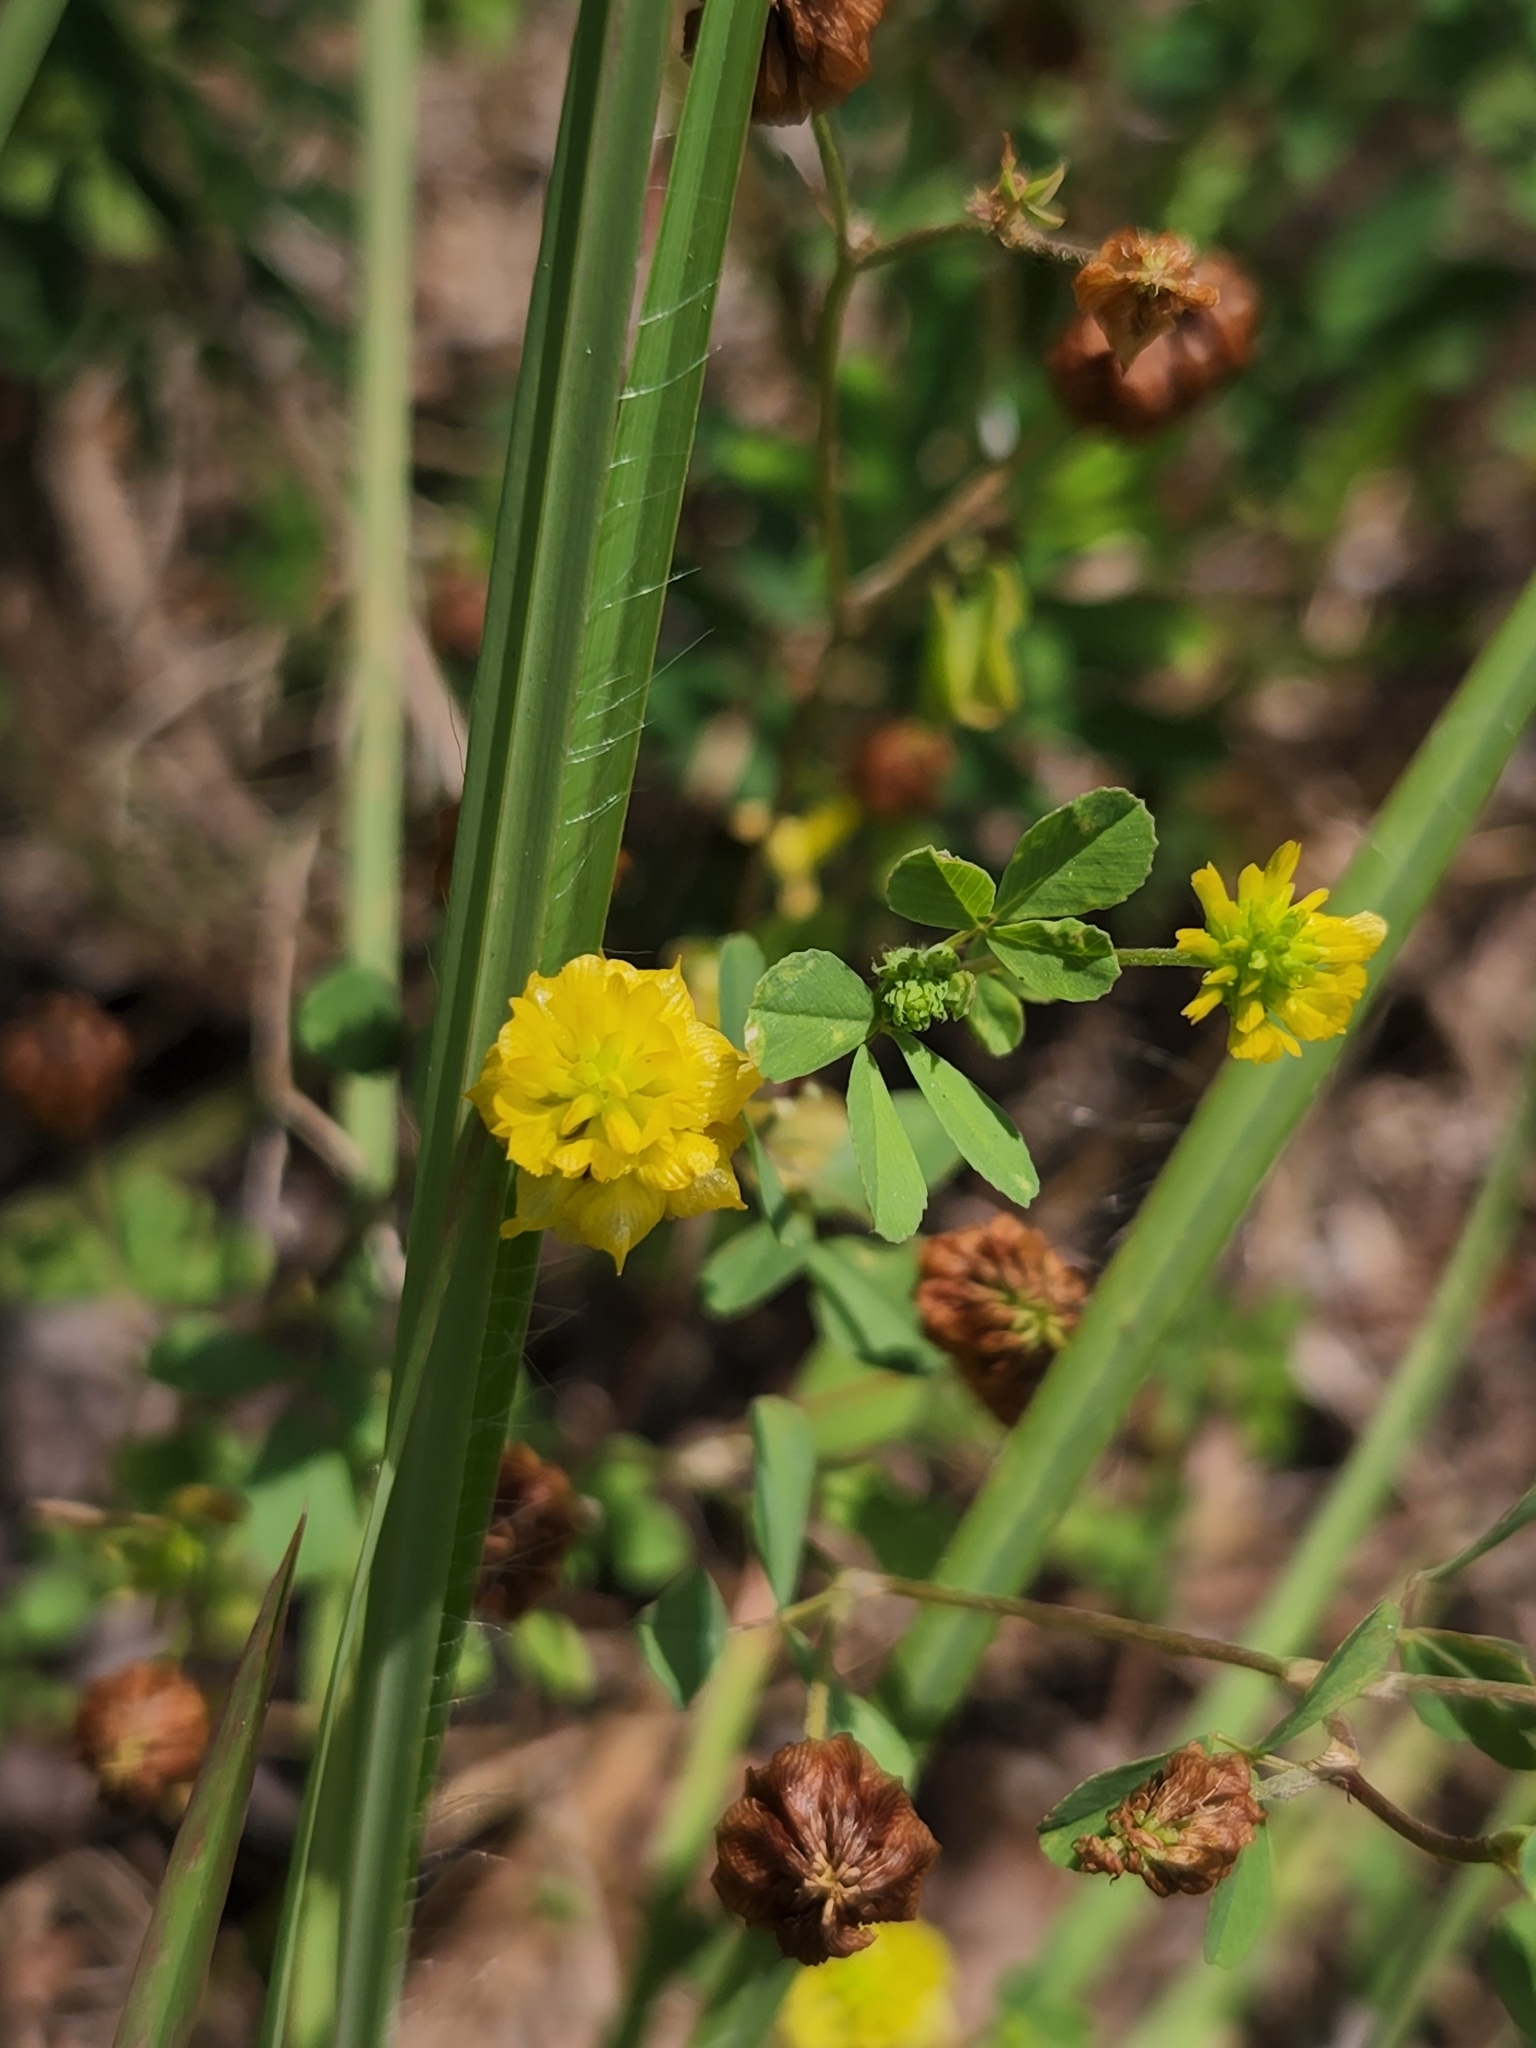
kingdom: Plantae
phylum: Tracheophyta
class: Magnoliopsida
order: Fabales
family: Fabaceae
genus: Trifolium
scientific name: Trifolium campestre
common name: Field clover
